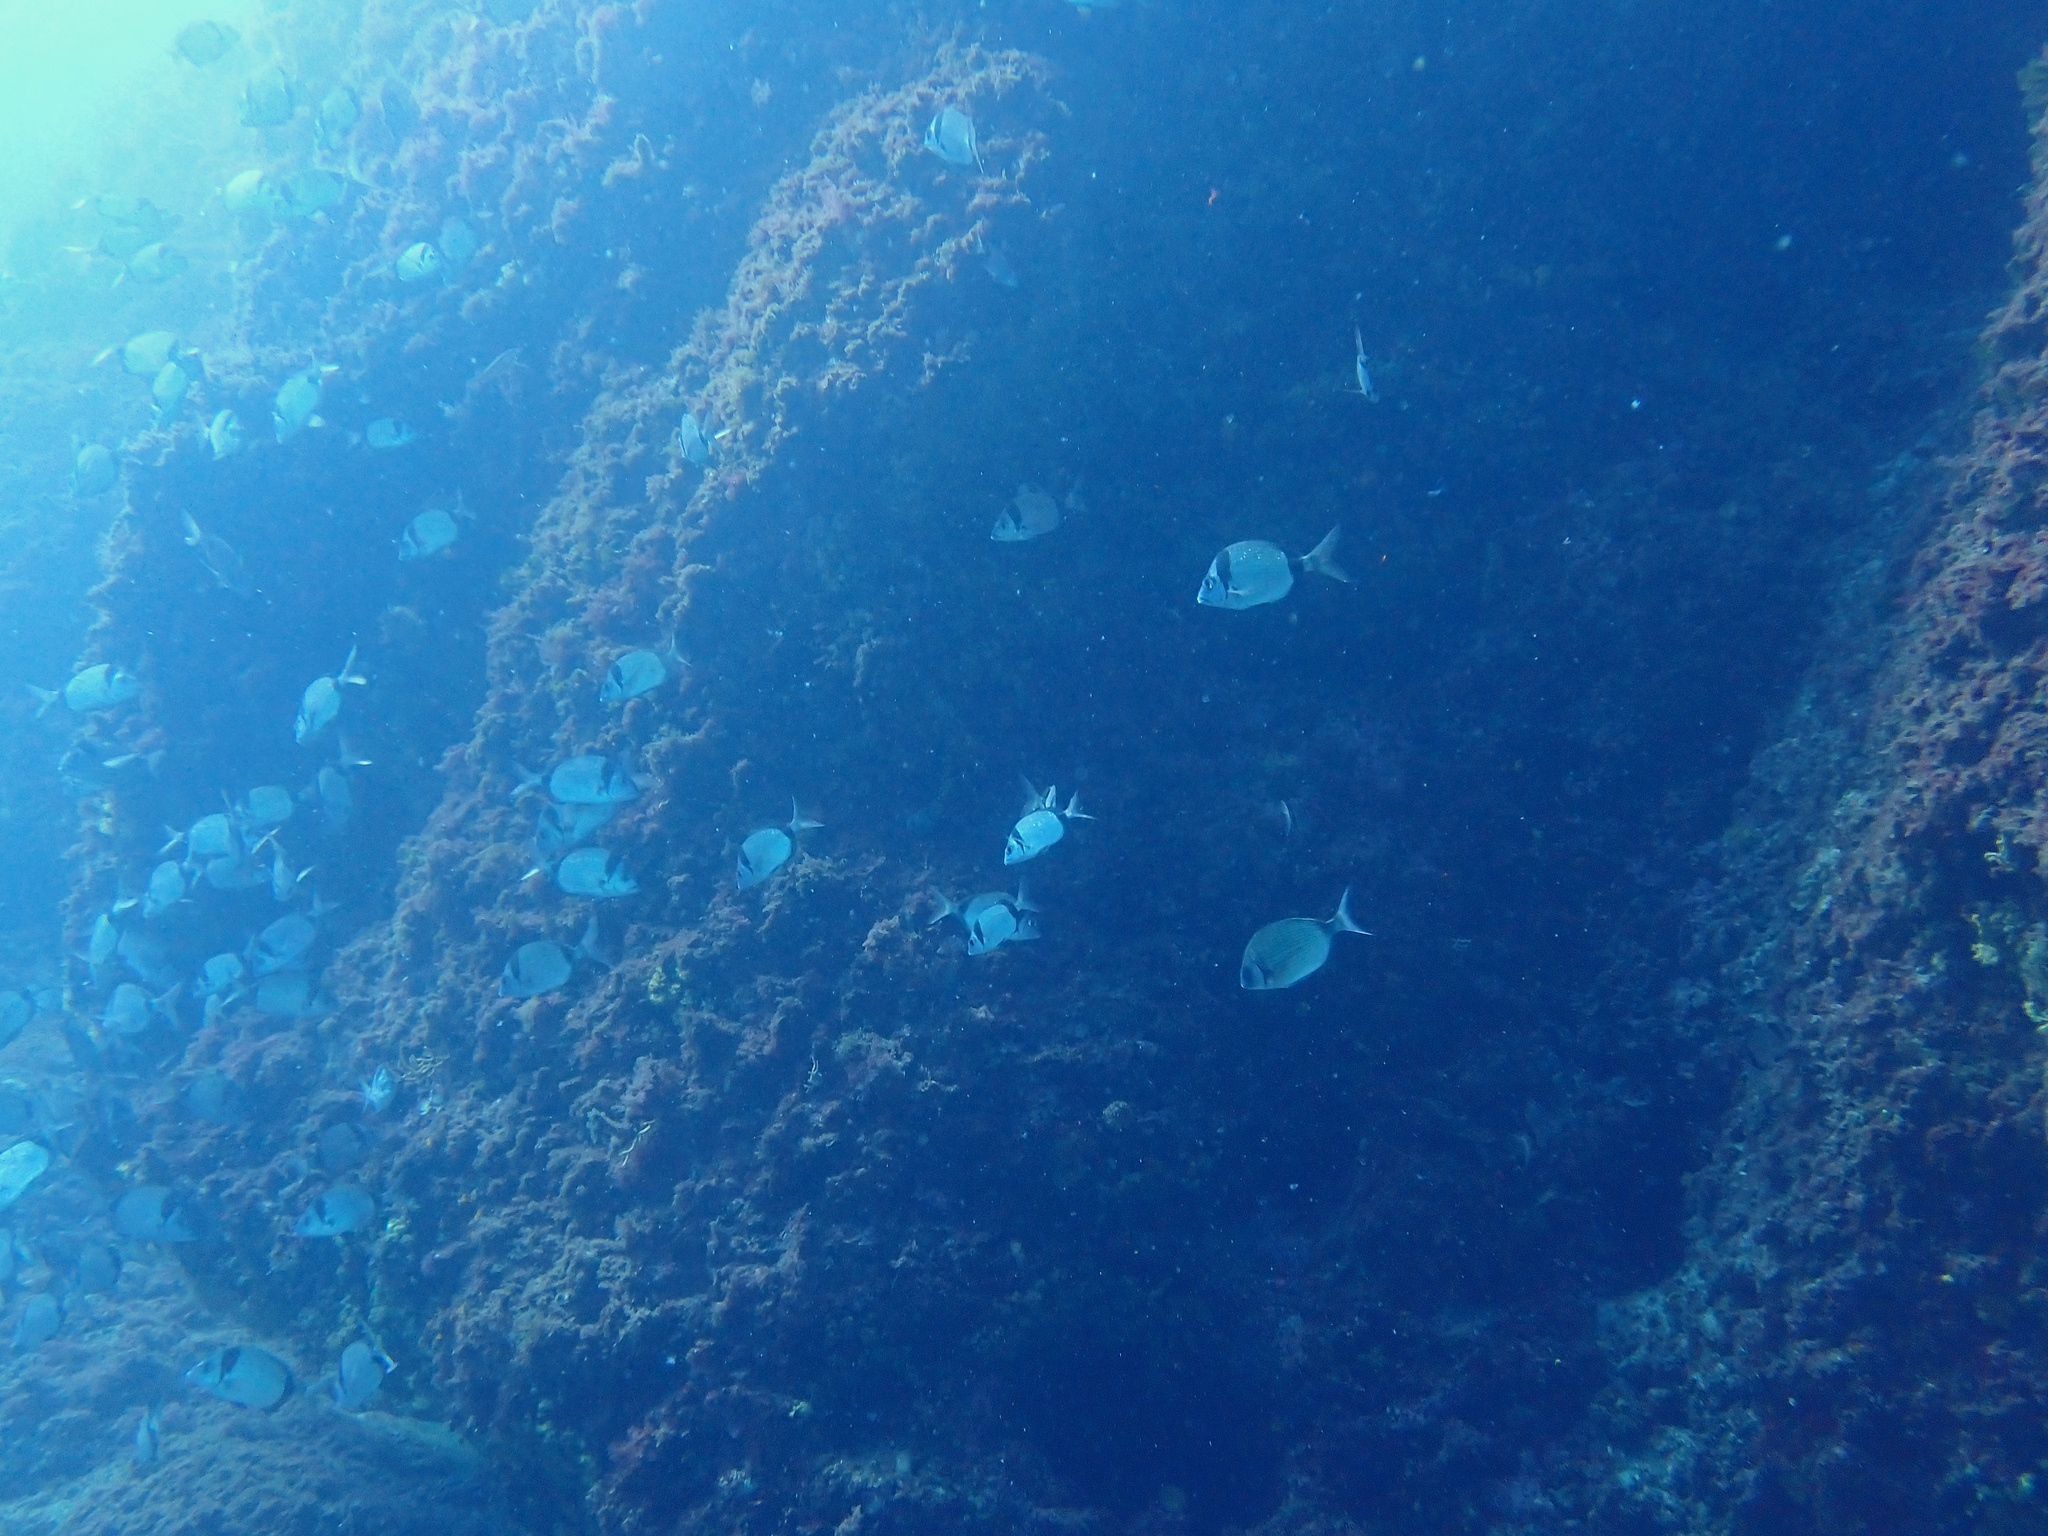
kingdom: Animalia
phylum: Chordata
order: Perciformes
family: Sparidae
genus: Diplodus
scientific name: Diplodus vulgaris
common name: Common two-banded seabream
